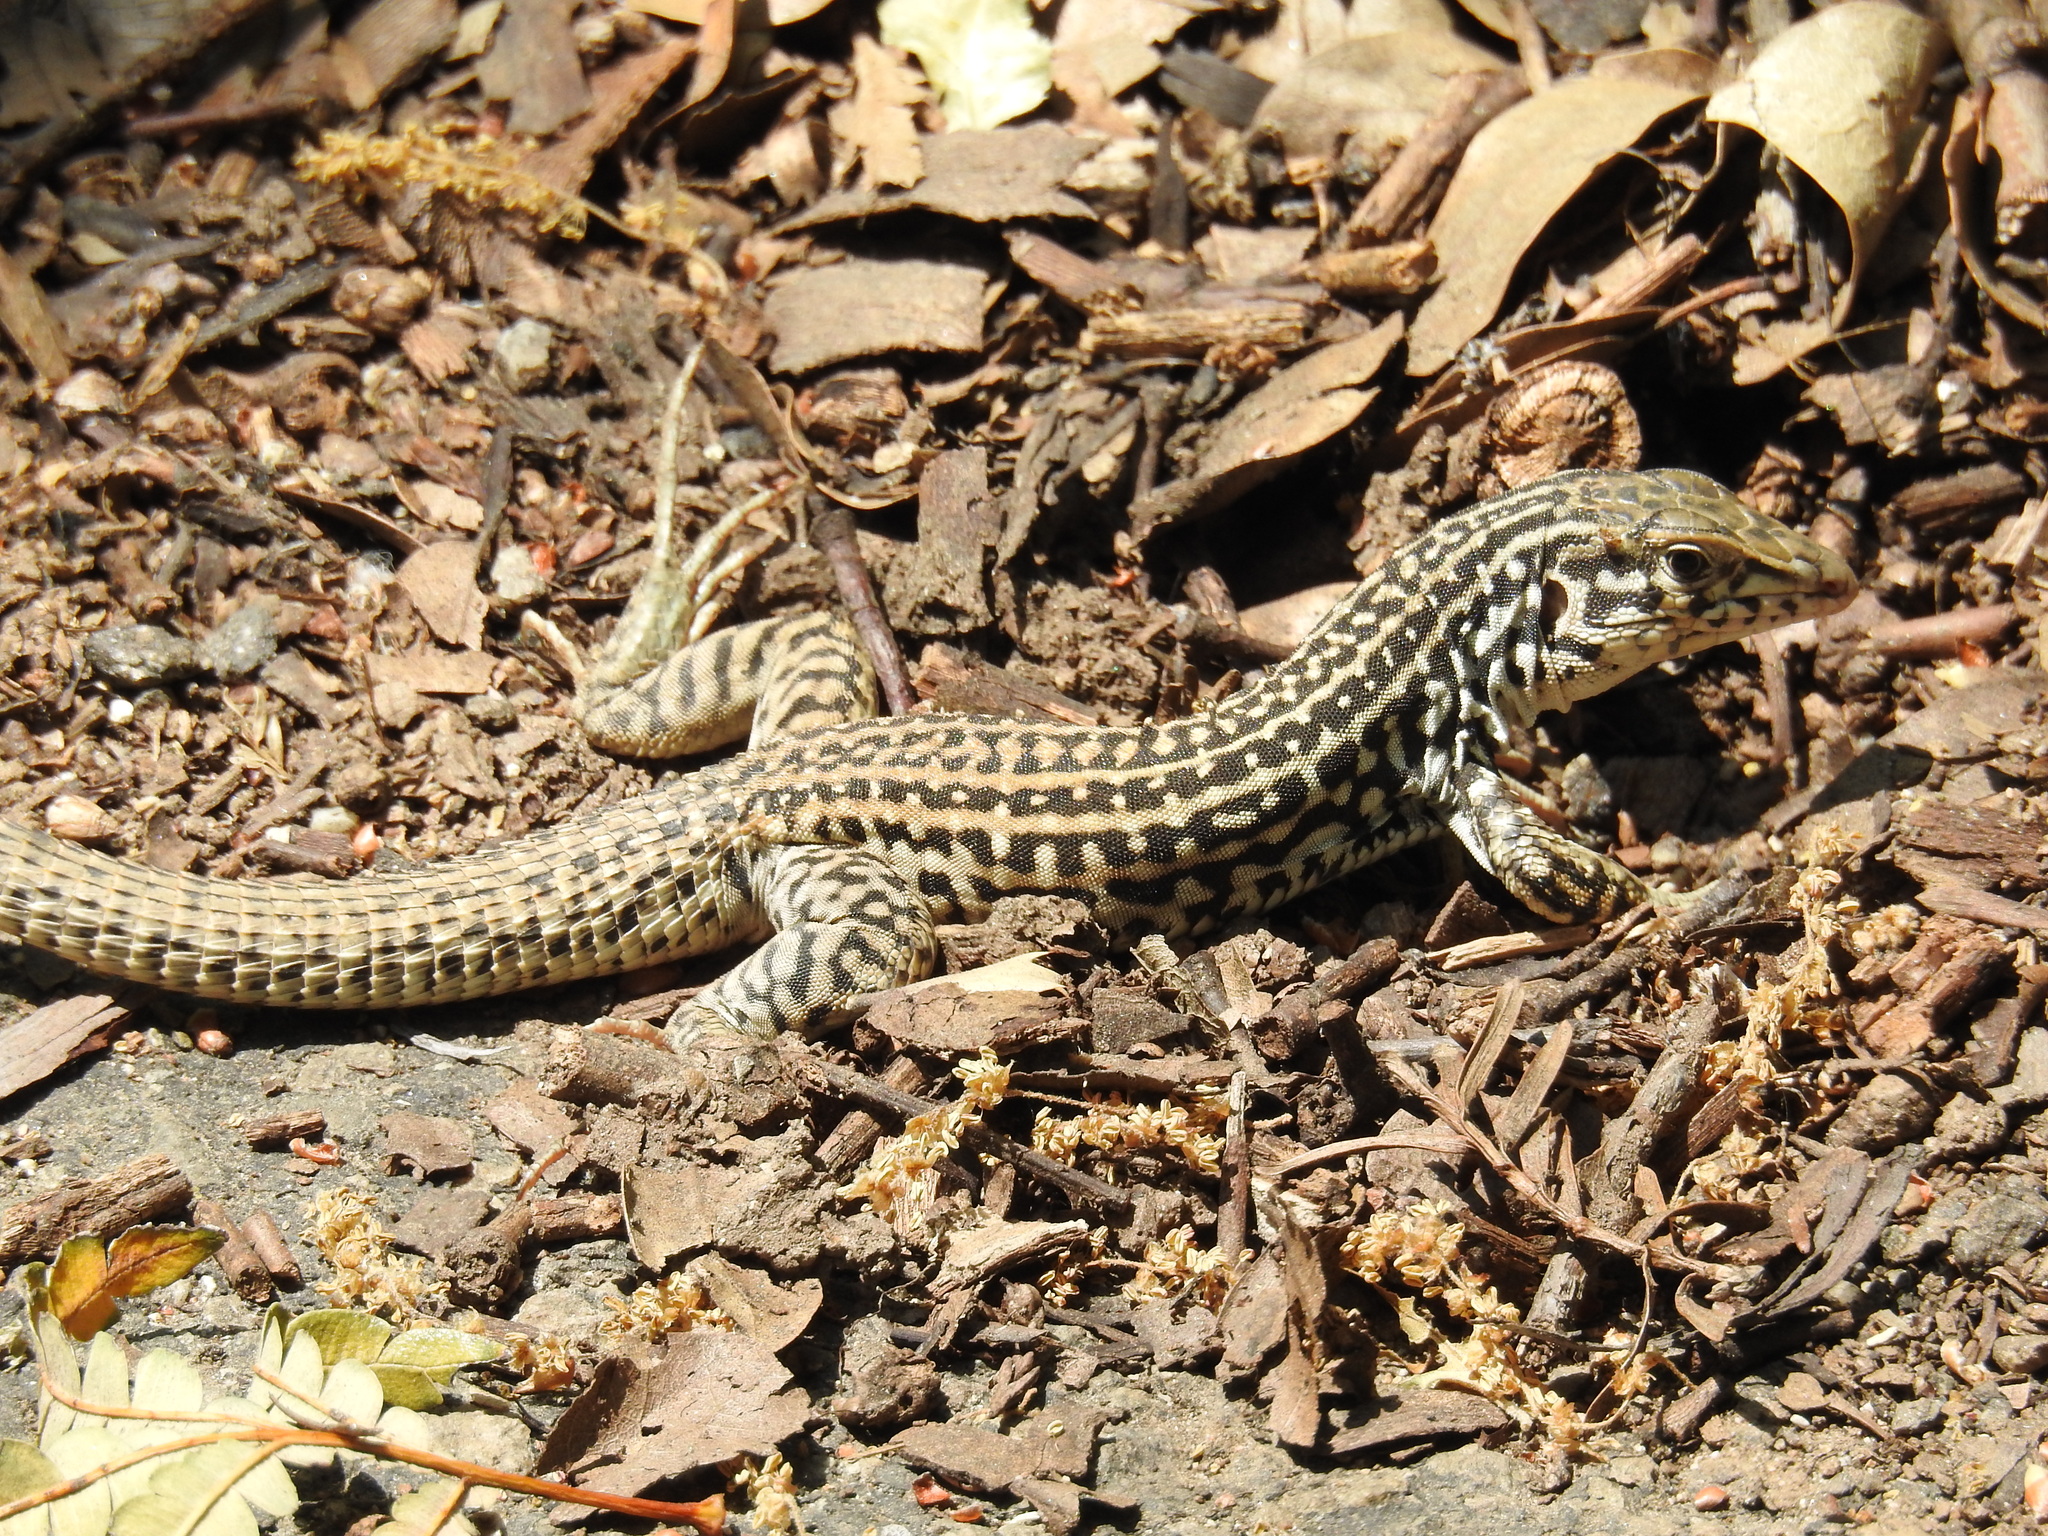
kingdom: Animalia
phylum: Chordata
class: Squamata
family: Teiidae
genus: Aspidoscelis
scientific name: Aspidoscelis tigris
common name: Tiger whiptail
